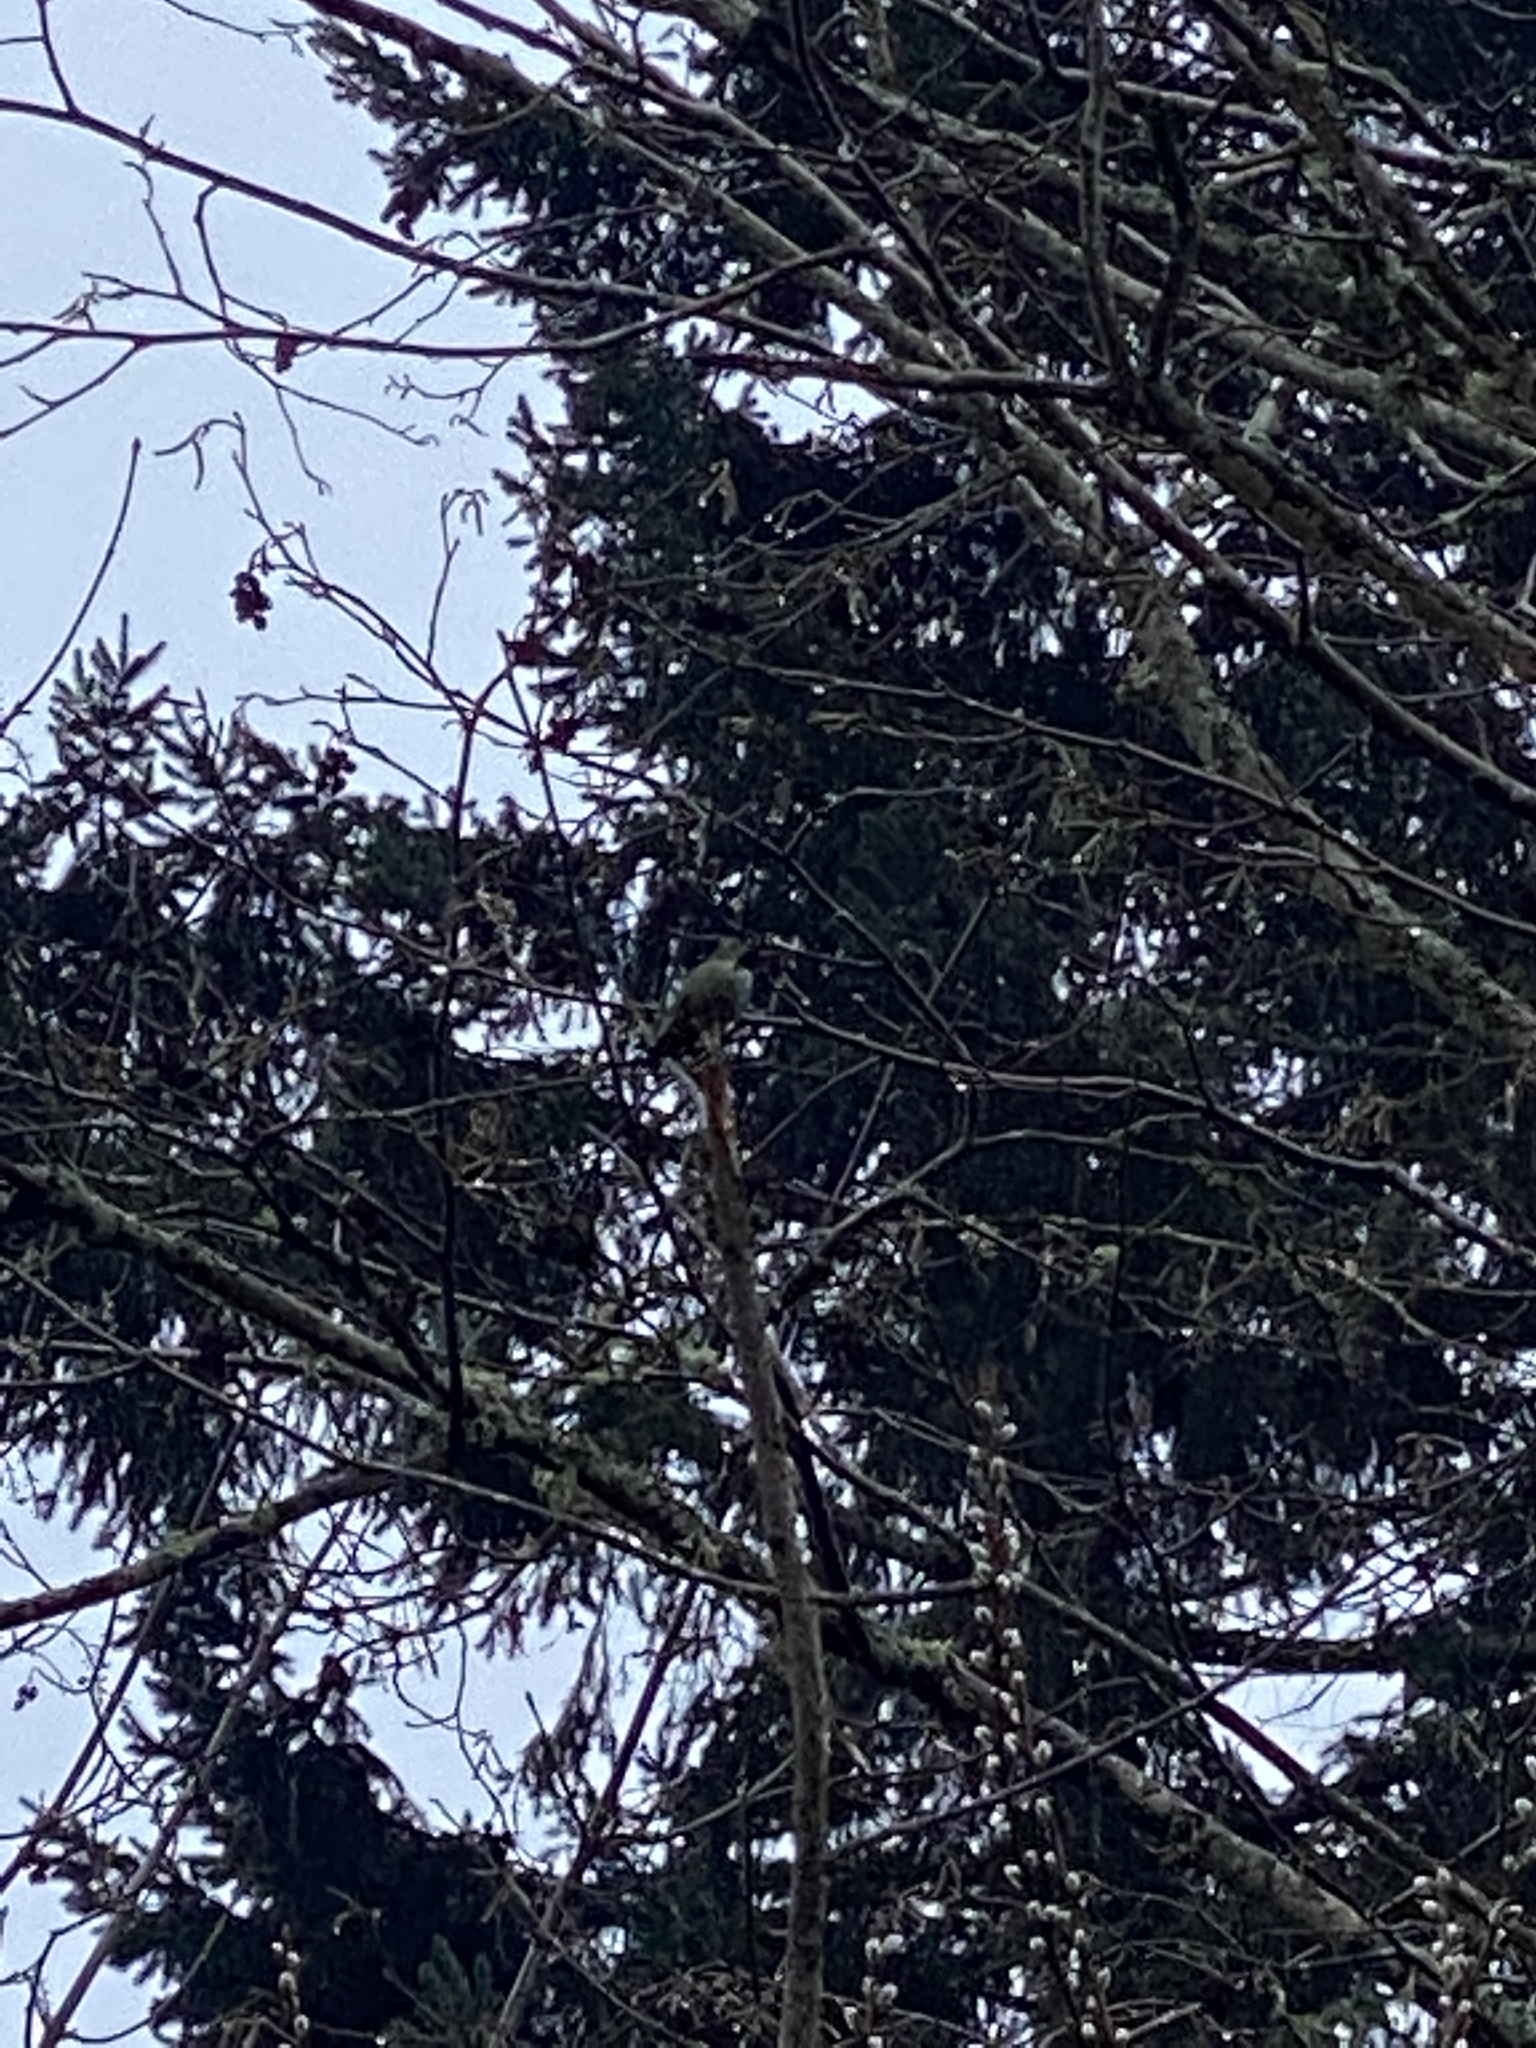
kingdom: Animalia
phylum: Chordata
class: Aves
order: Apodiformes
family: Trochilidae
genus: Calypte
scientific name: Calypte anna
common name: Anna's hummingbird
